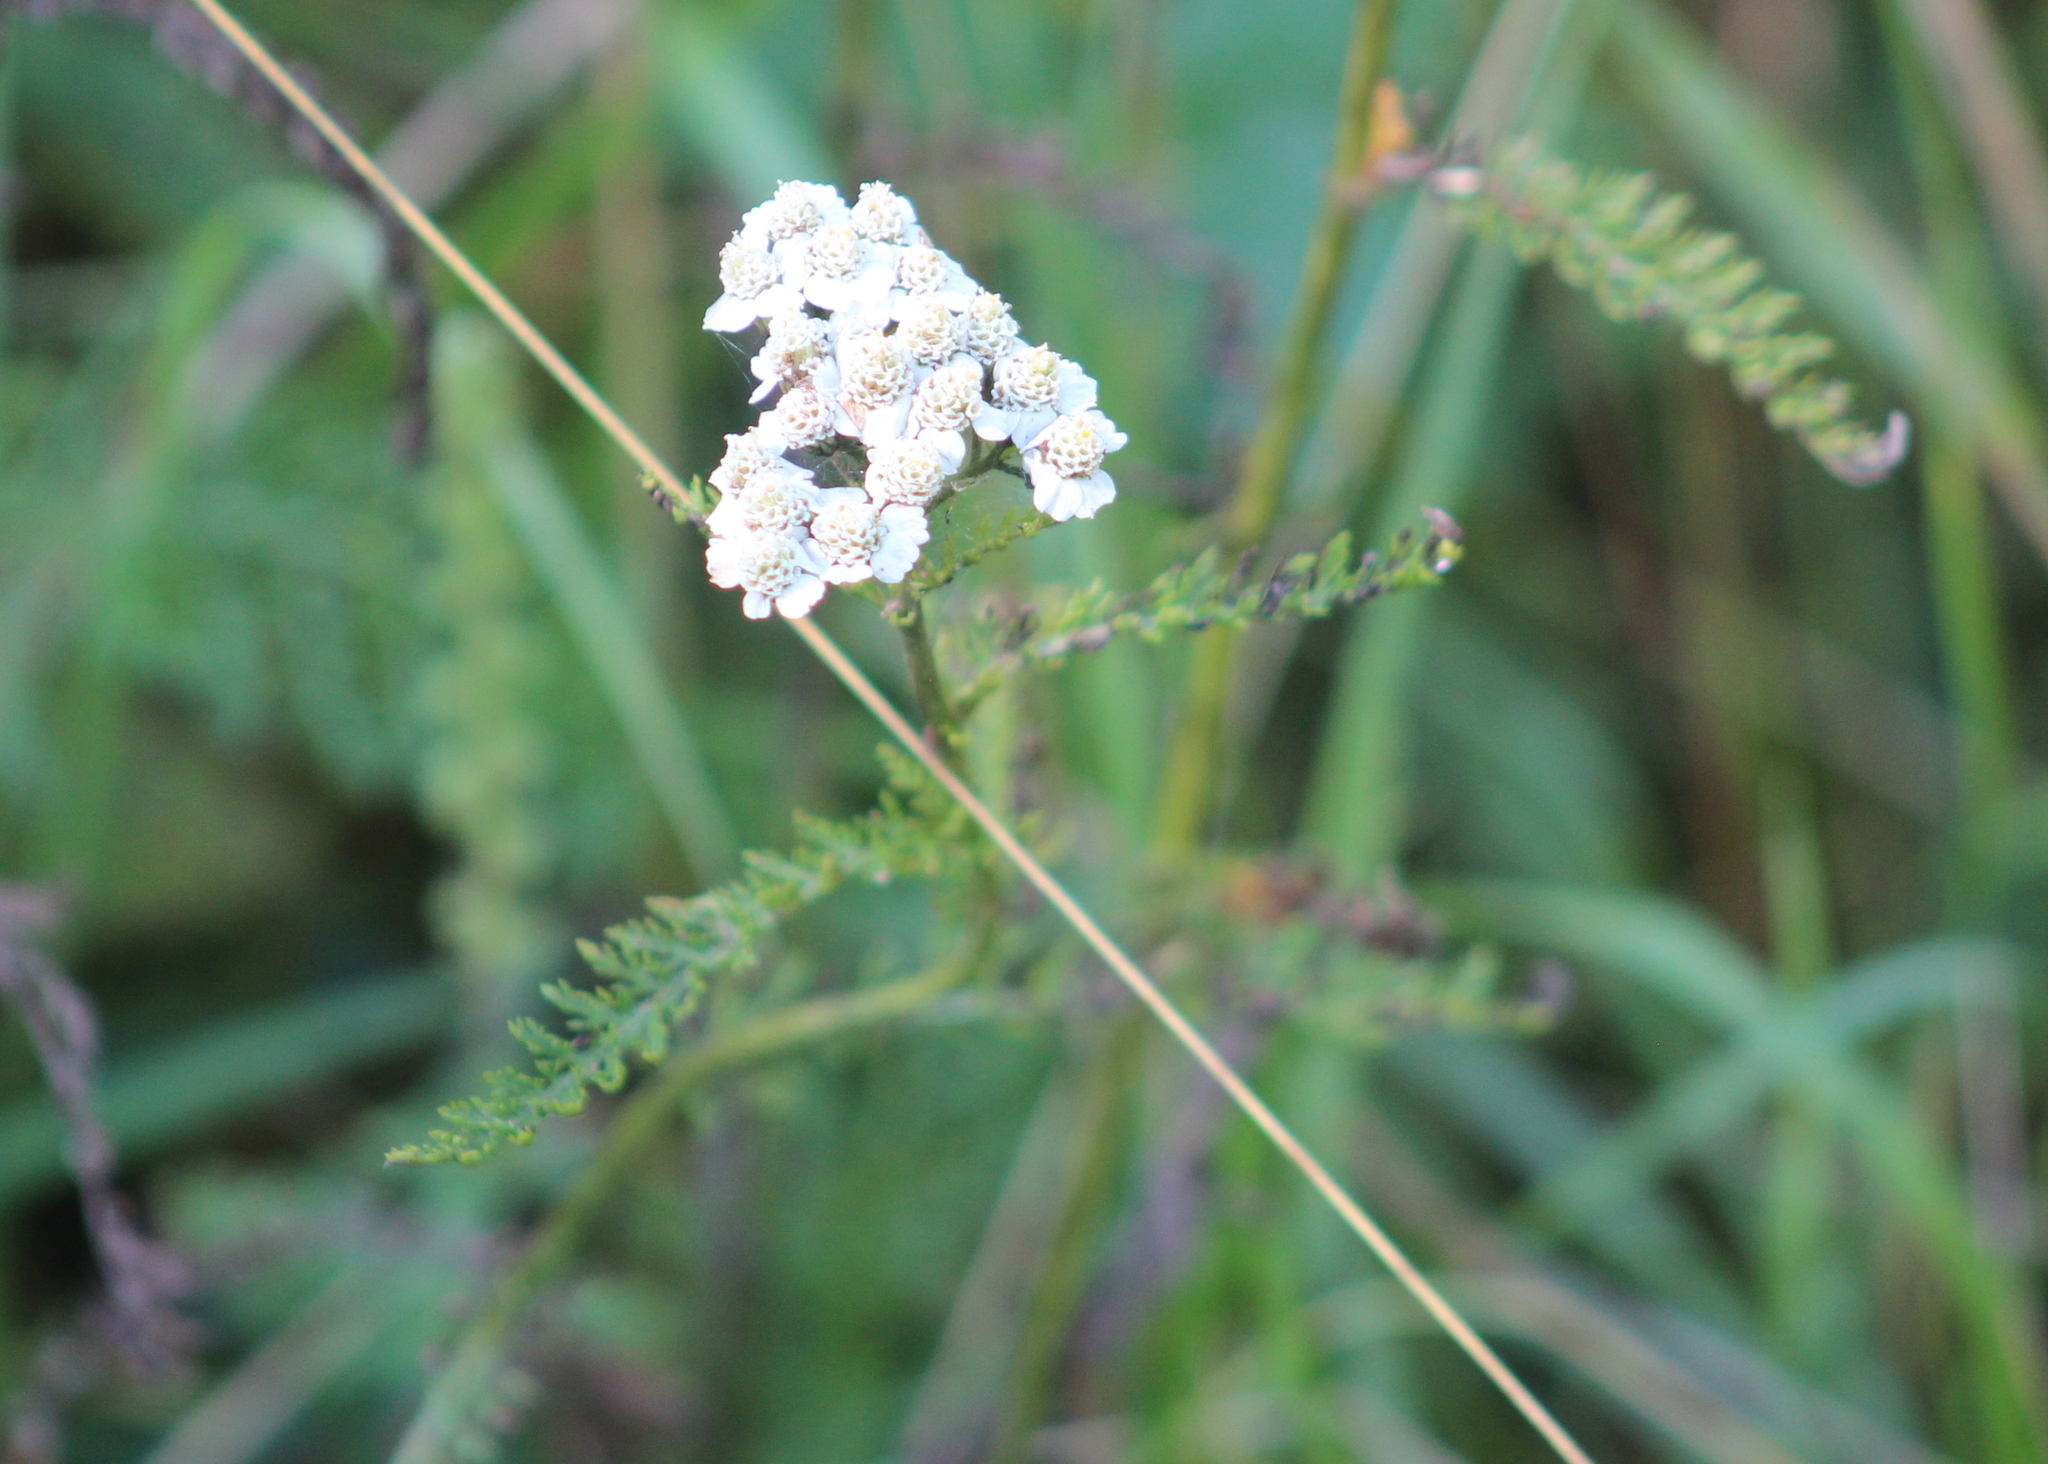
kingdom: Plantae
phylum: Tracheophyta
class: Magnoliopsida
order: Asterales
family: Asteraceae
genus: Achillea
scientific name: Achillea millefolium
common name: Yarrow
